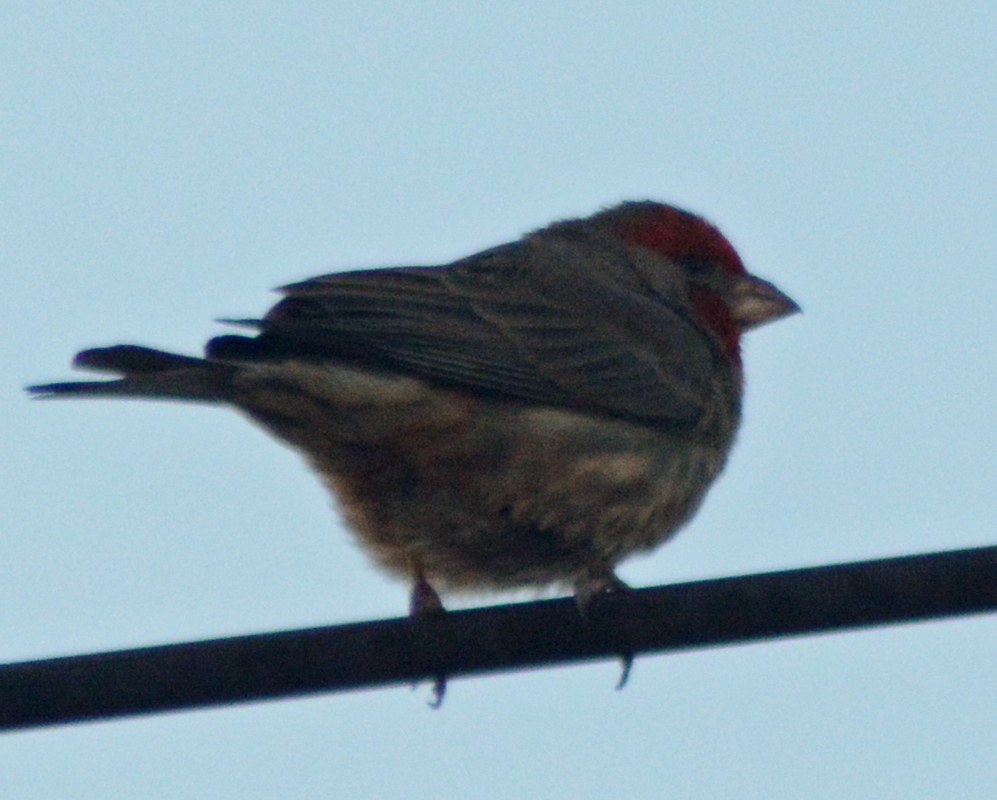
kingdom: Animalia
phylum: Chordata
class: Aves
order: Passeriformes
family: Fringillidae
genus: Haemorhous
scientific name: Haemorhous mexicanus
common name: House finch
